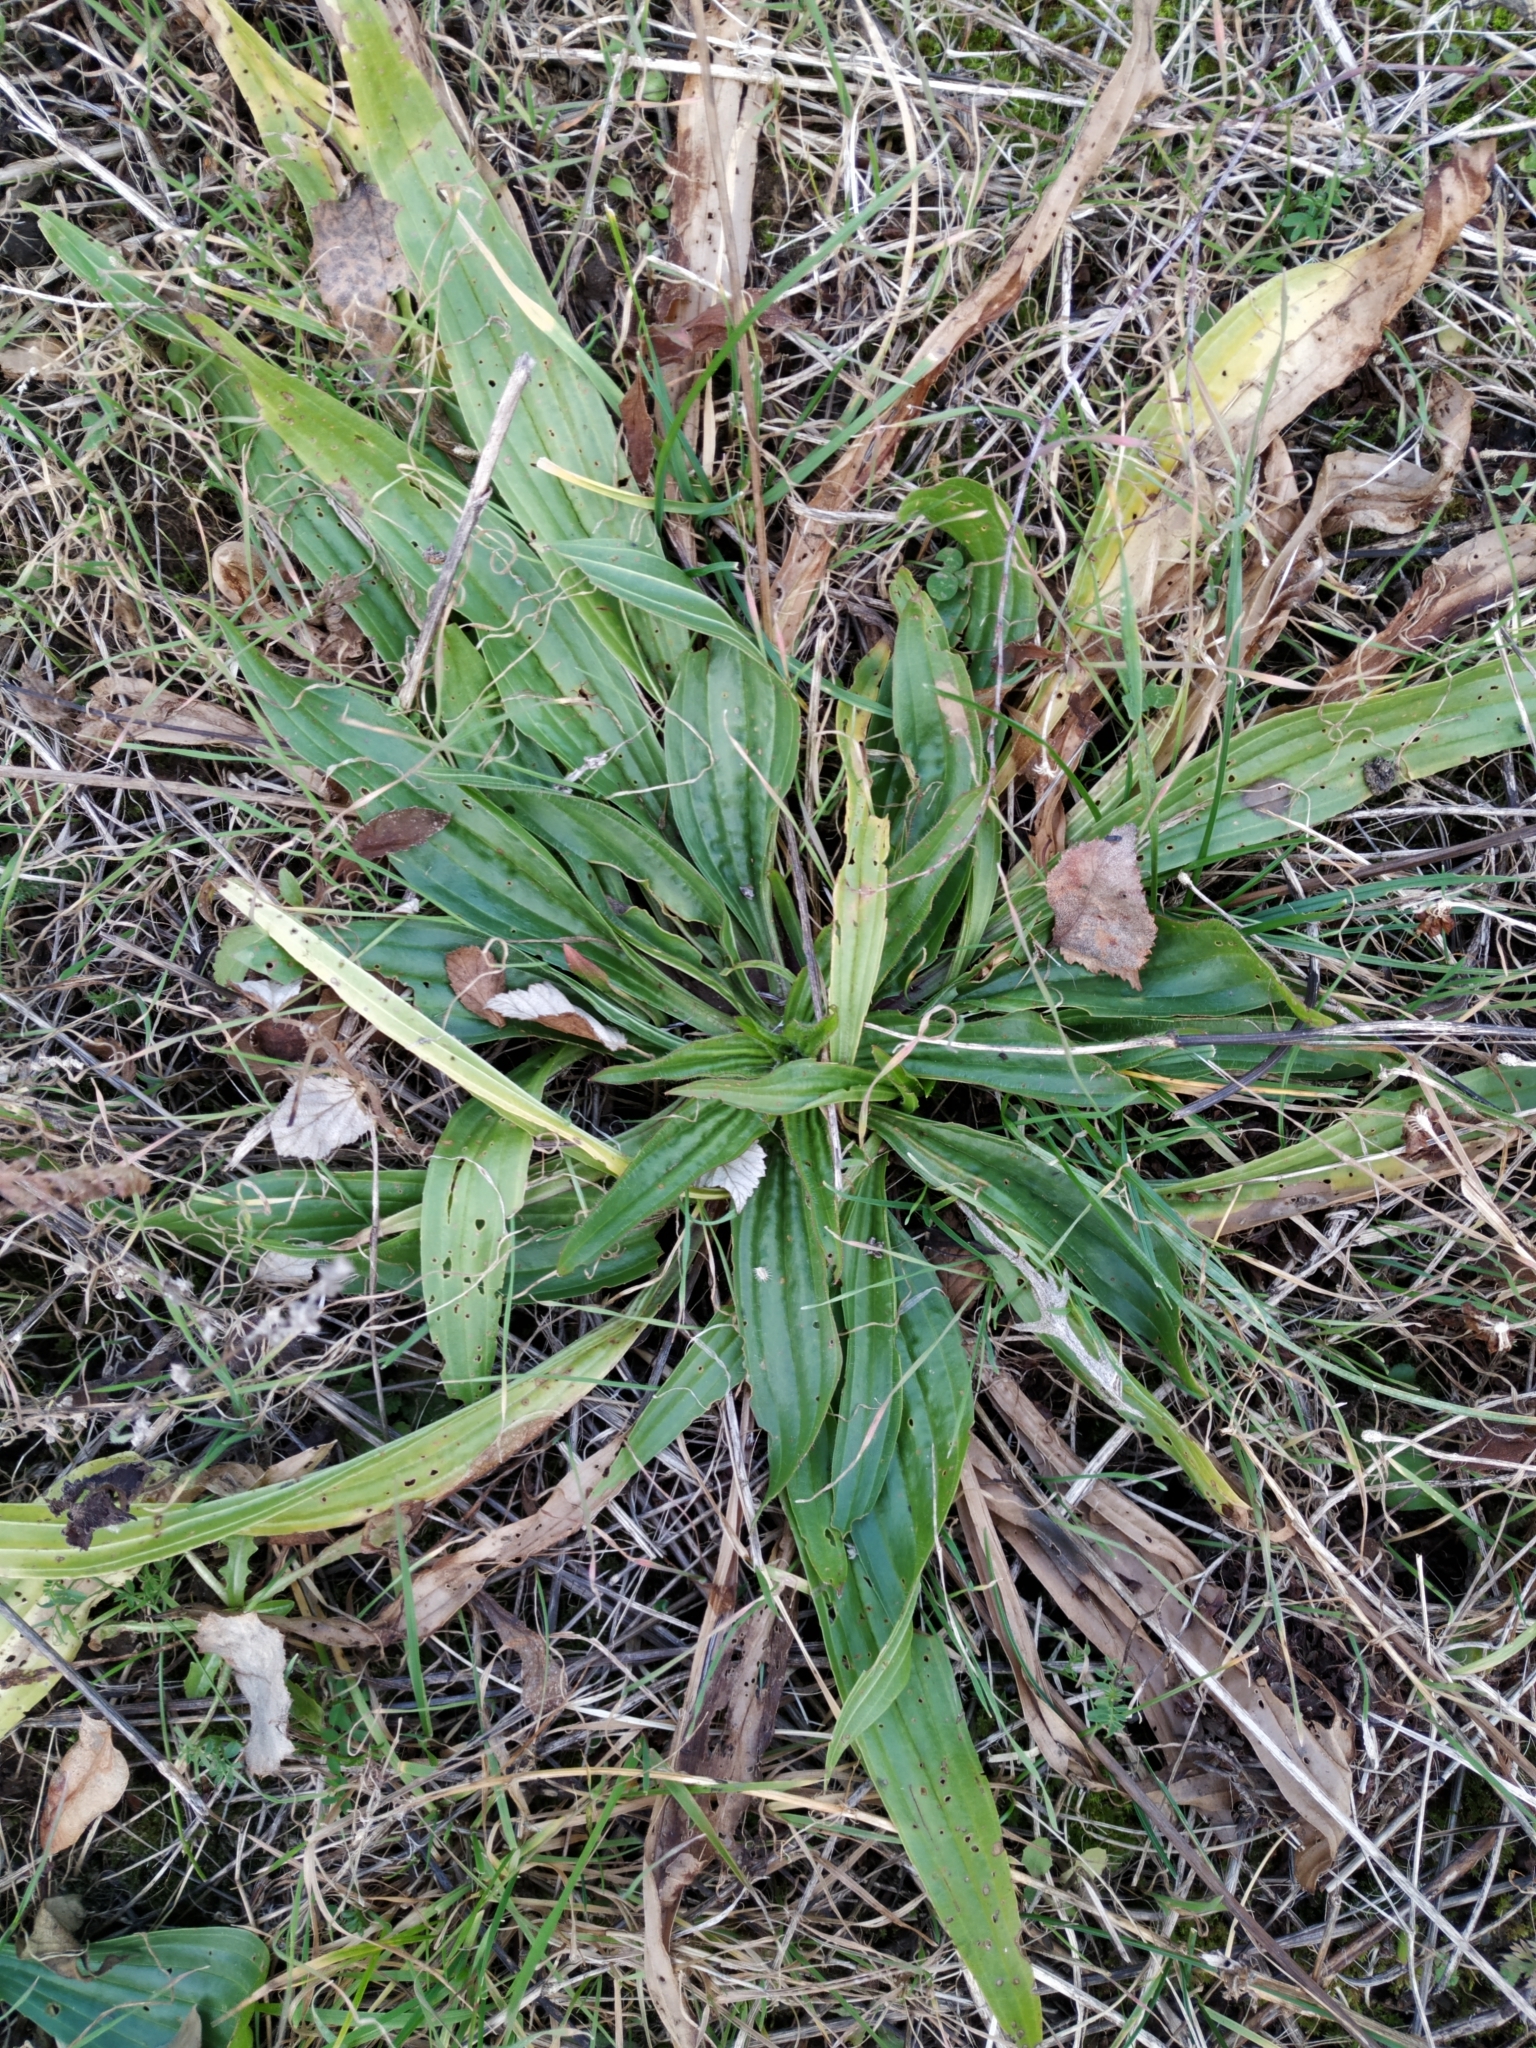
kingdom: Plantae
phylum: Tracheophyta
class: Magnoliopsida
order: Lamiales
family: Plantaginaceae
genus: Plantago
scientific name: Plantago lanceolata
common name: Ribwort plantain
